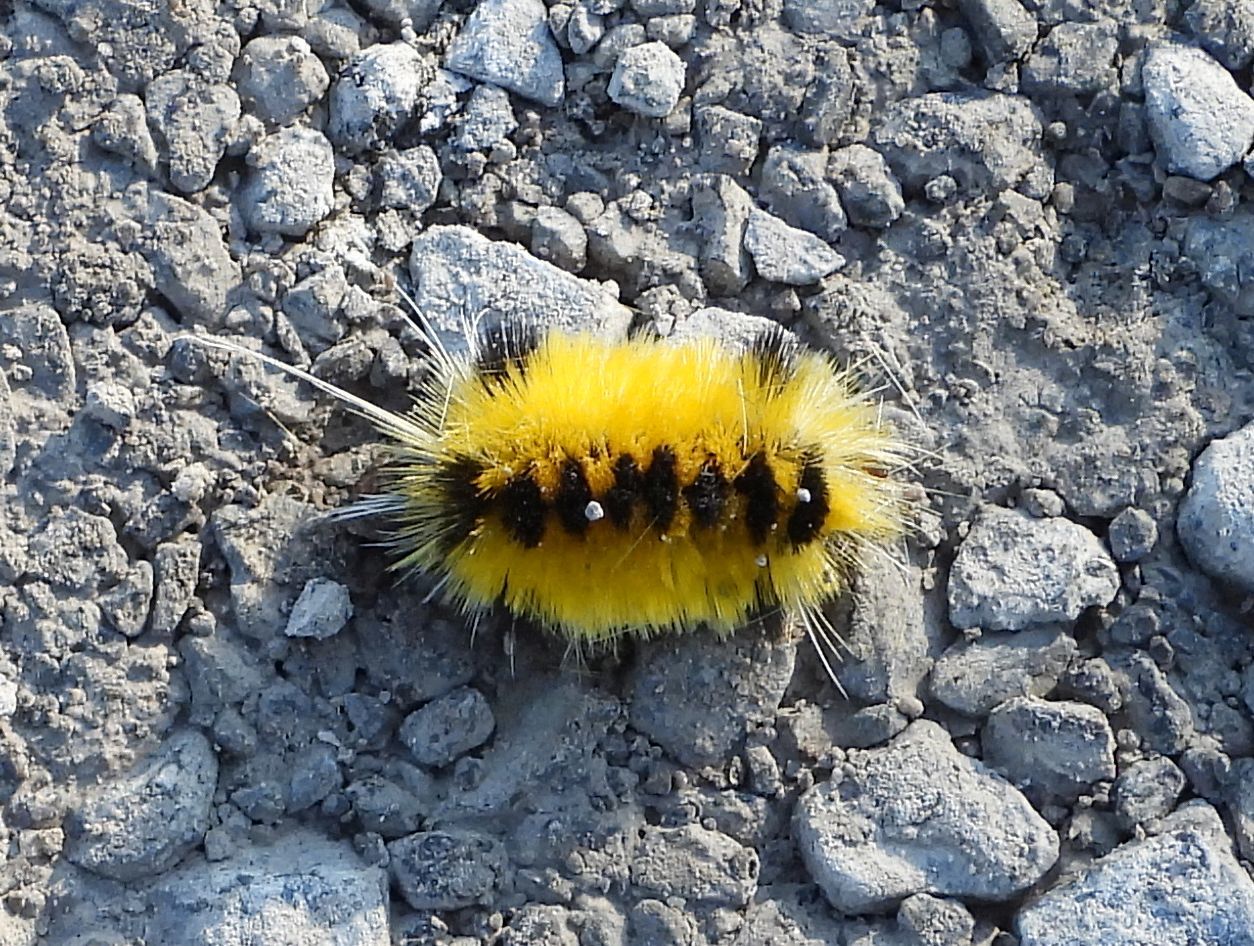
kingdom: Animalia
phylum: Arthropoda
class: Insecta
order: Lepidoptera
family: Erebidae
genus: Lophocampa
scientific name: Lophocampa maculata
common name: Spotted tussock moth
